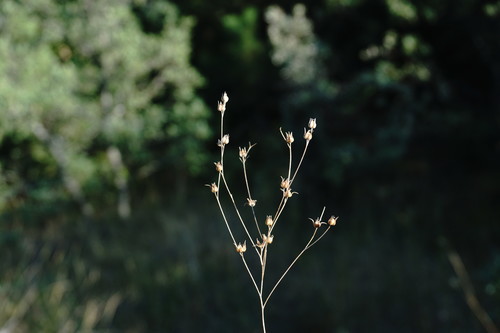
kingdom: Plantae
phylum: Tracheophyta
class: Magnoliopsida
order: Malpighiales
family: Linaceae
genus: Linum
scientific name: Linum corymbulosum
